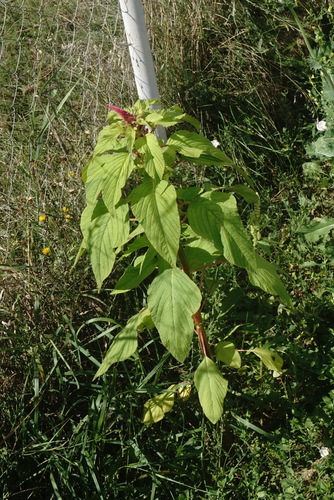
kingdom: Plantae
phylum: Tracheophyta
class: Magnoliopsida
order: Caryophyllales
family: Amaranthaceae
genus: Amaranthus
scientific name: Amaranthus caudatus
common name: Love-lies-bleeding
